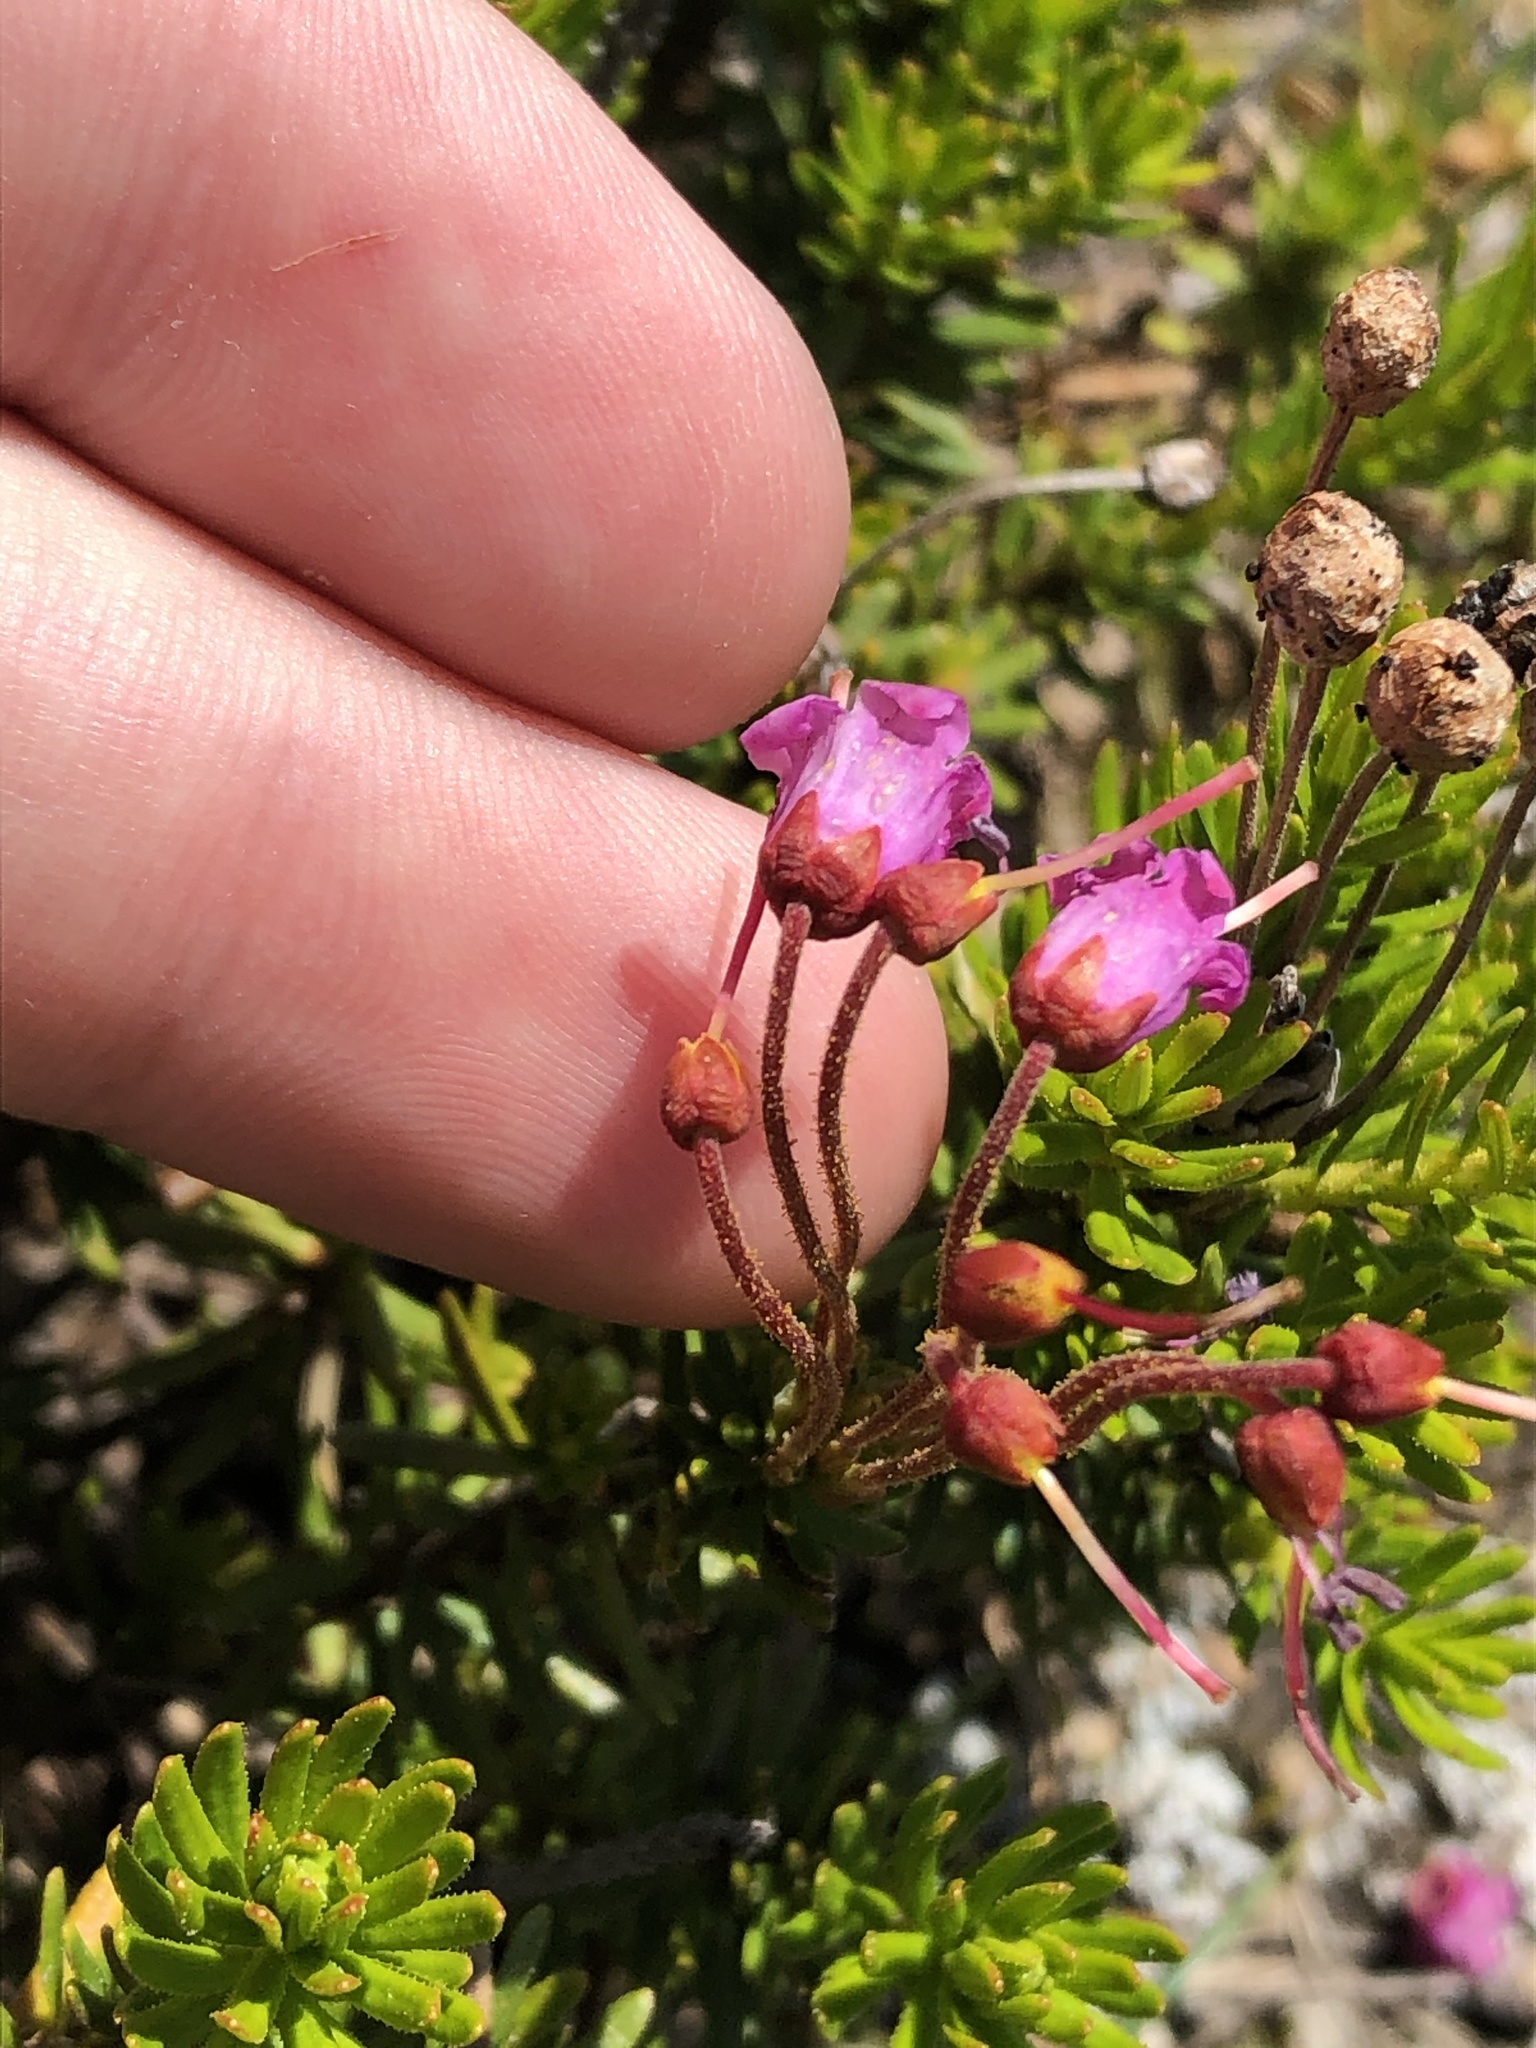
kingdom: Plantae
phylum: Tracheophyta
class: Magnoliopsida
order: Ericales
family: Ericaceae
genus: Phyllodoce
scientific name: Phyllodoce empetriformis
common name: Pink mountain heather
